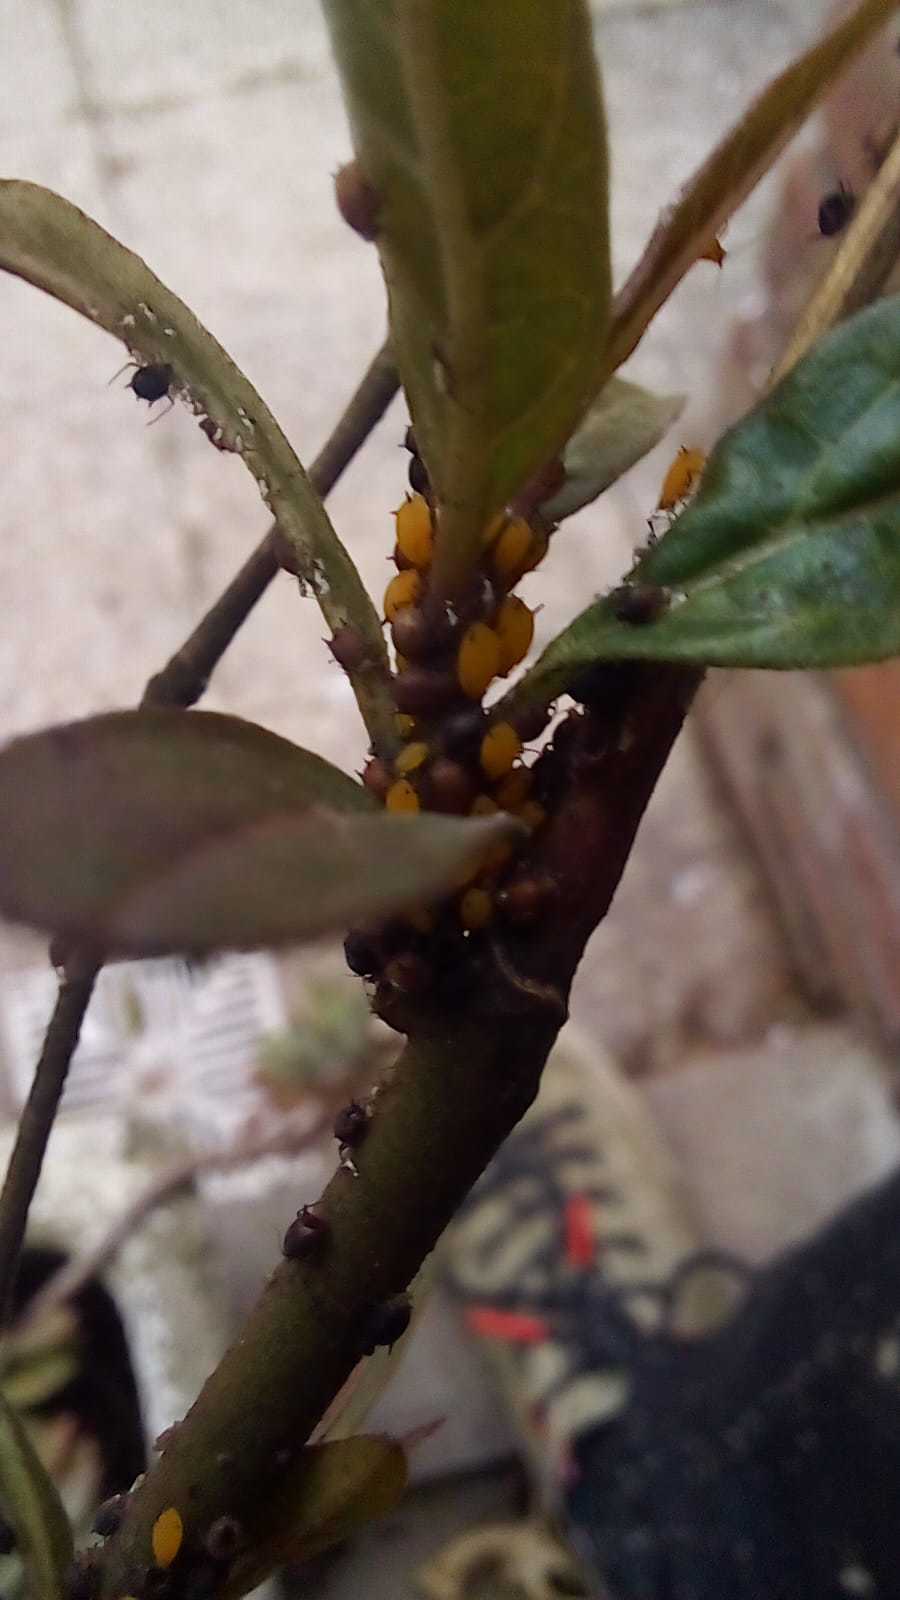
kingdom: Animalia
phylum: Arthropoda
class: Insecta
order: Hemiptera
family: Aphididae
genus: Aphis
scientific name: Aphis nerii
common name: Oleander aphid
